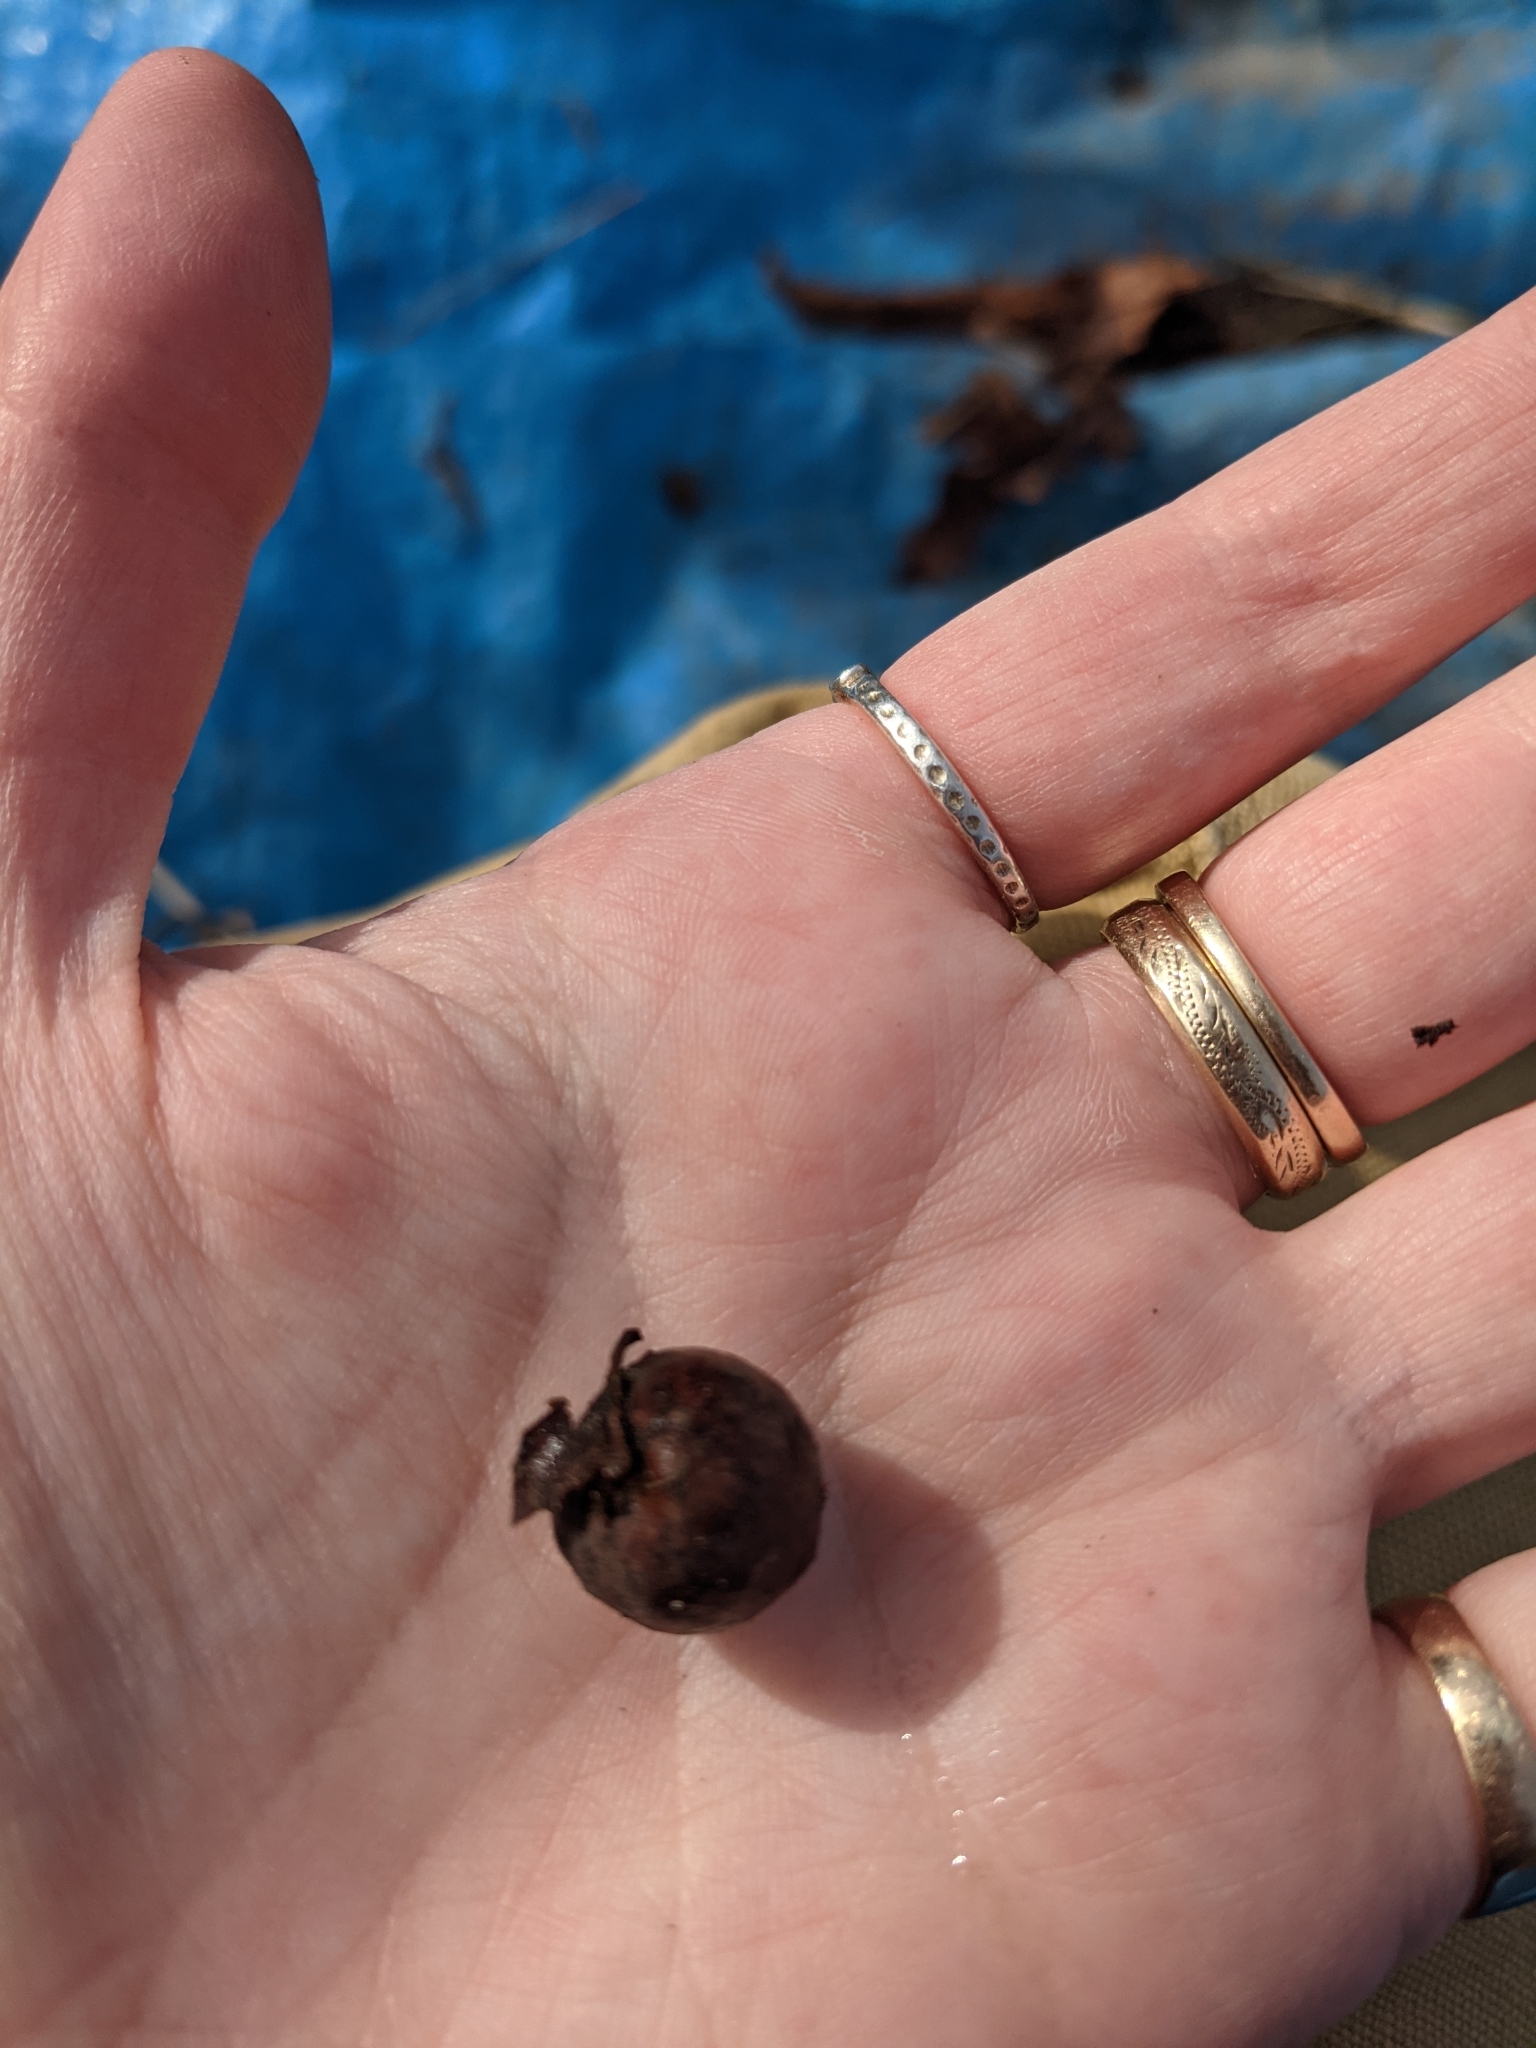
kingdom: Animalia
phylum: Arthropoda
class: Insecta
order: Hymenoptera
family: Cynipidae
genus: Cynips
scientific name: Cynips
